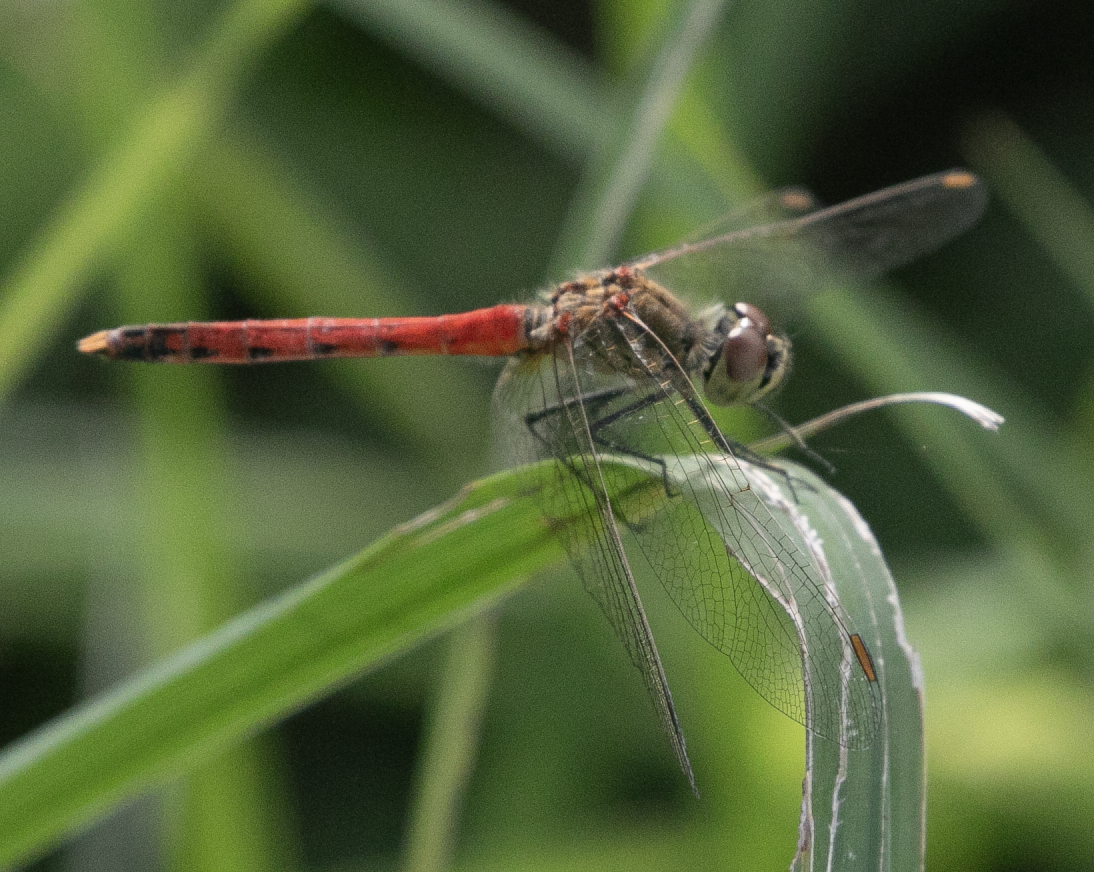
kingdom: Animalia
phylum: Arthropoda
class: Insecta
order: Odonata
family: Libellulidae
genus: Sympetrum
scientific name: Sympetrum depressiusculum
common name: Spotted darter
